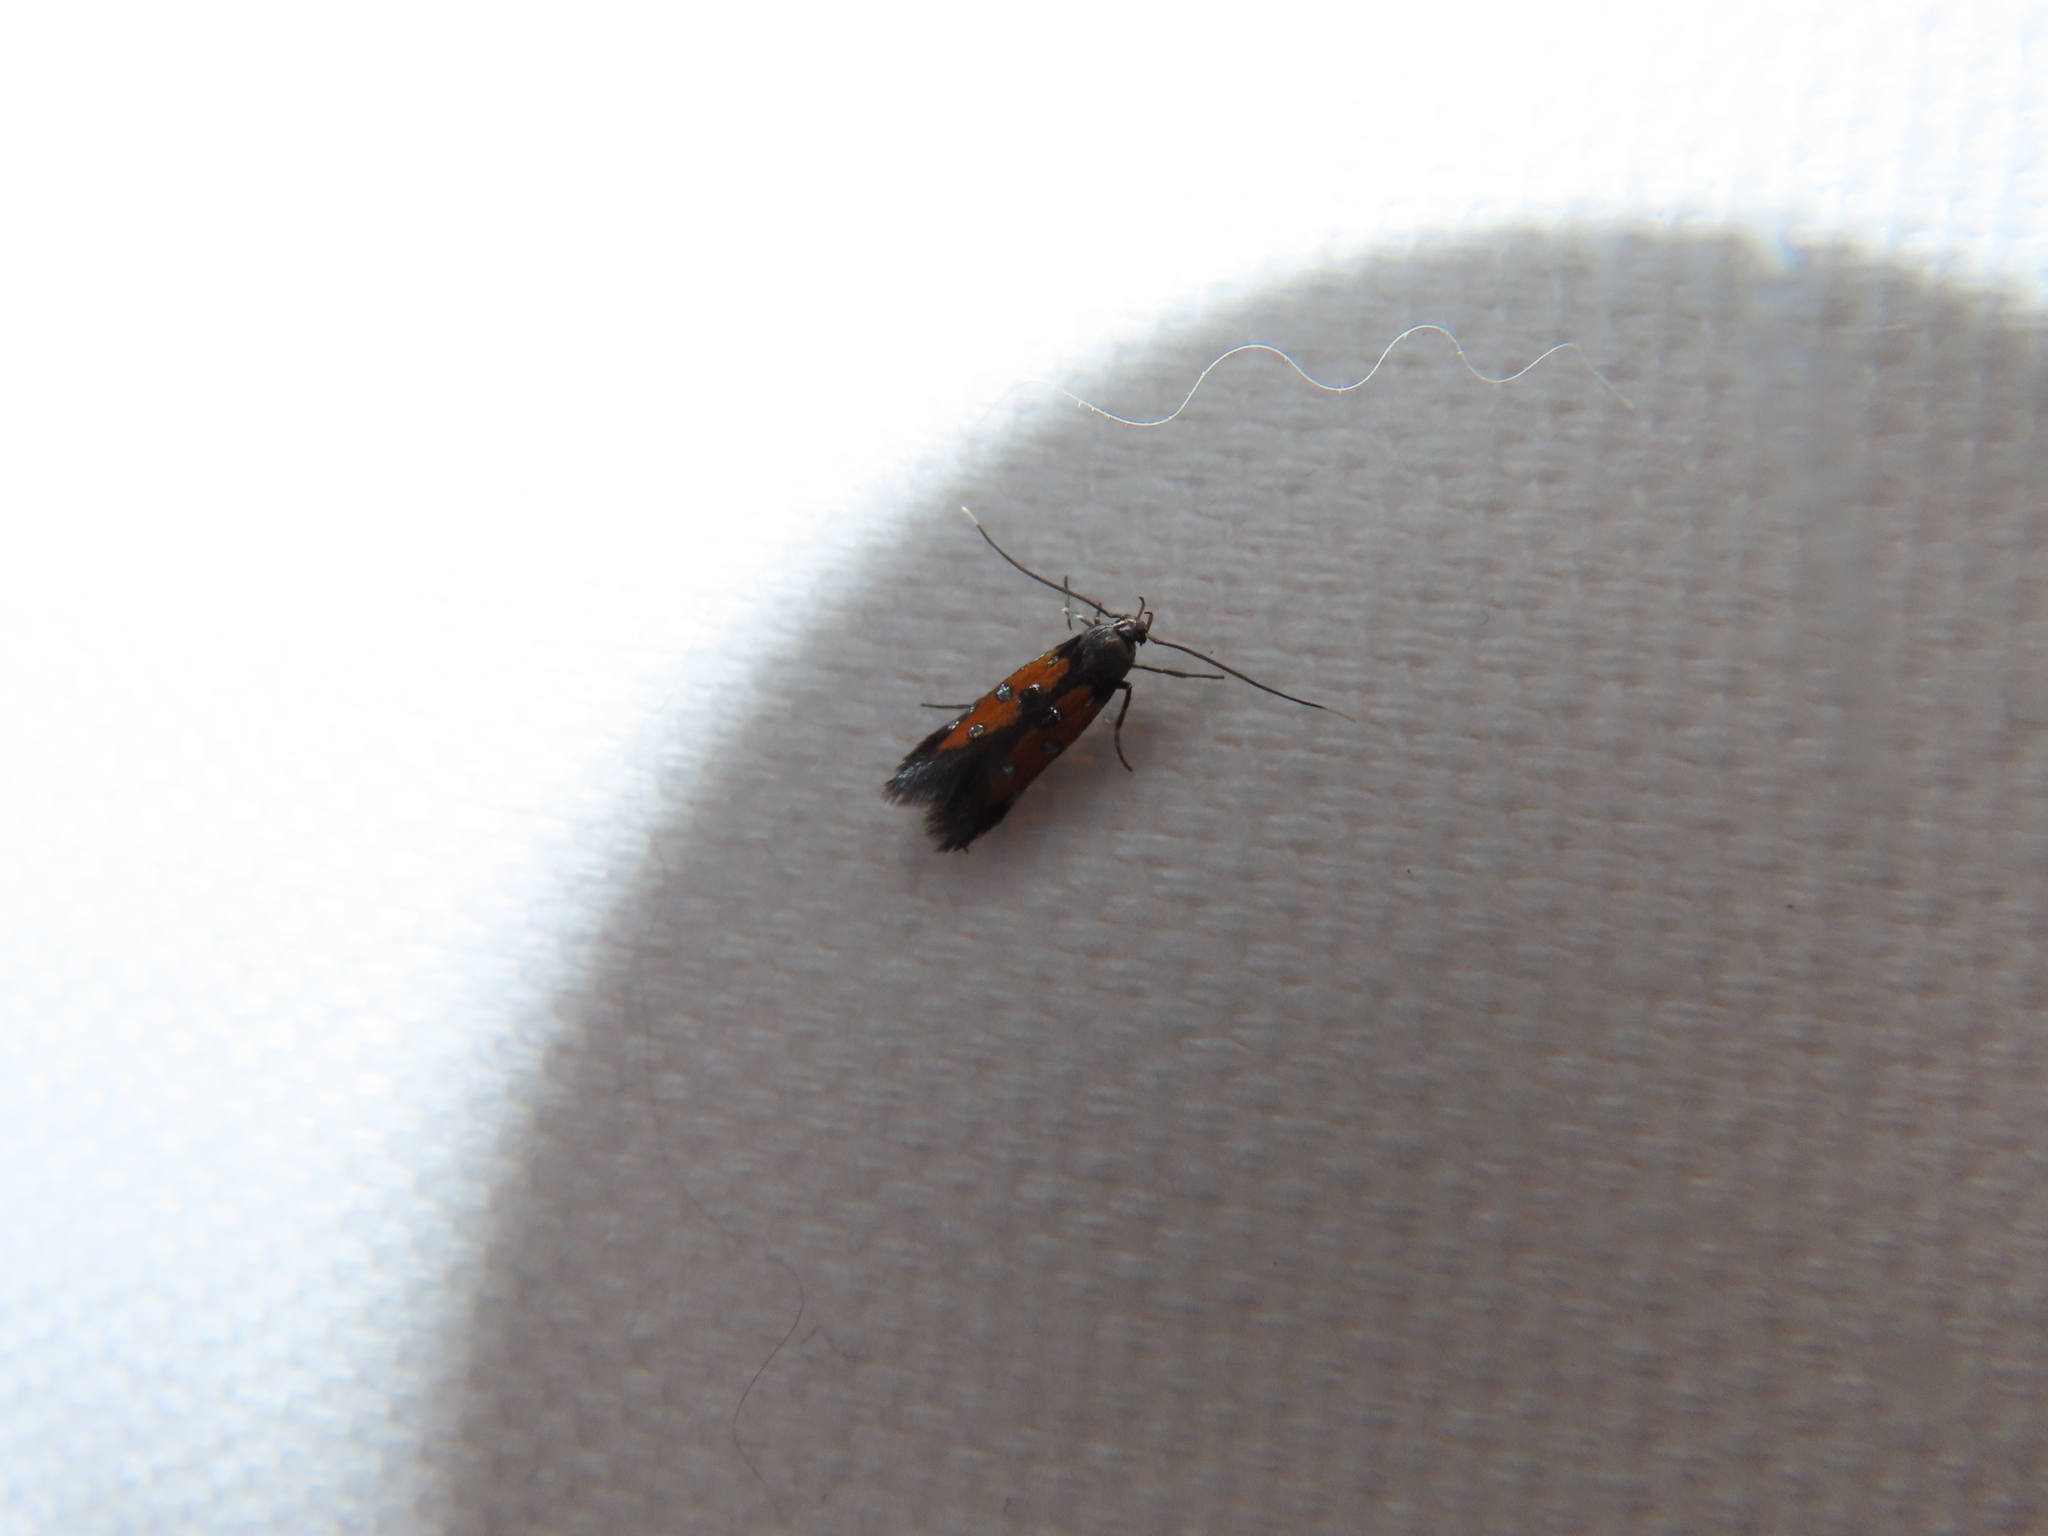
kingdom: Animalia
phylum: Arthropoda
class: Insecta
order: Lepidoptera
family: Elachistidae
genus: Chrysoclista
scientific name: Chrysoclista linneela
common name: Lime cosmet
